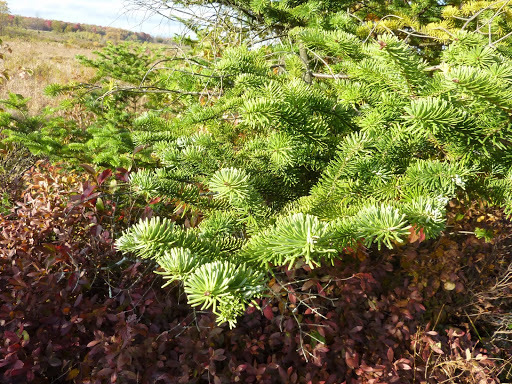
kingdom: Plantae
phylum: Tracheophyta
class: Pinopsida
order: Pinales
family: Pinaceae
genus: Abies
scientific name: Abies balsamea
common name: Balsam fir
